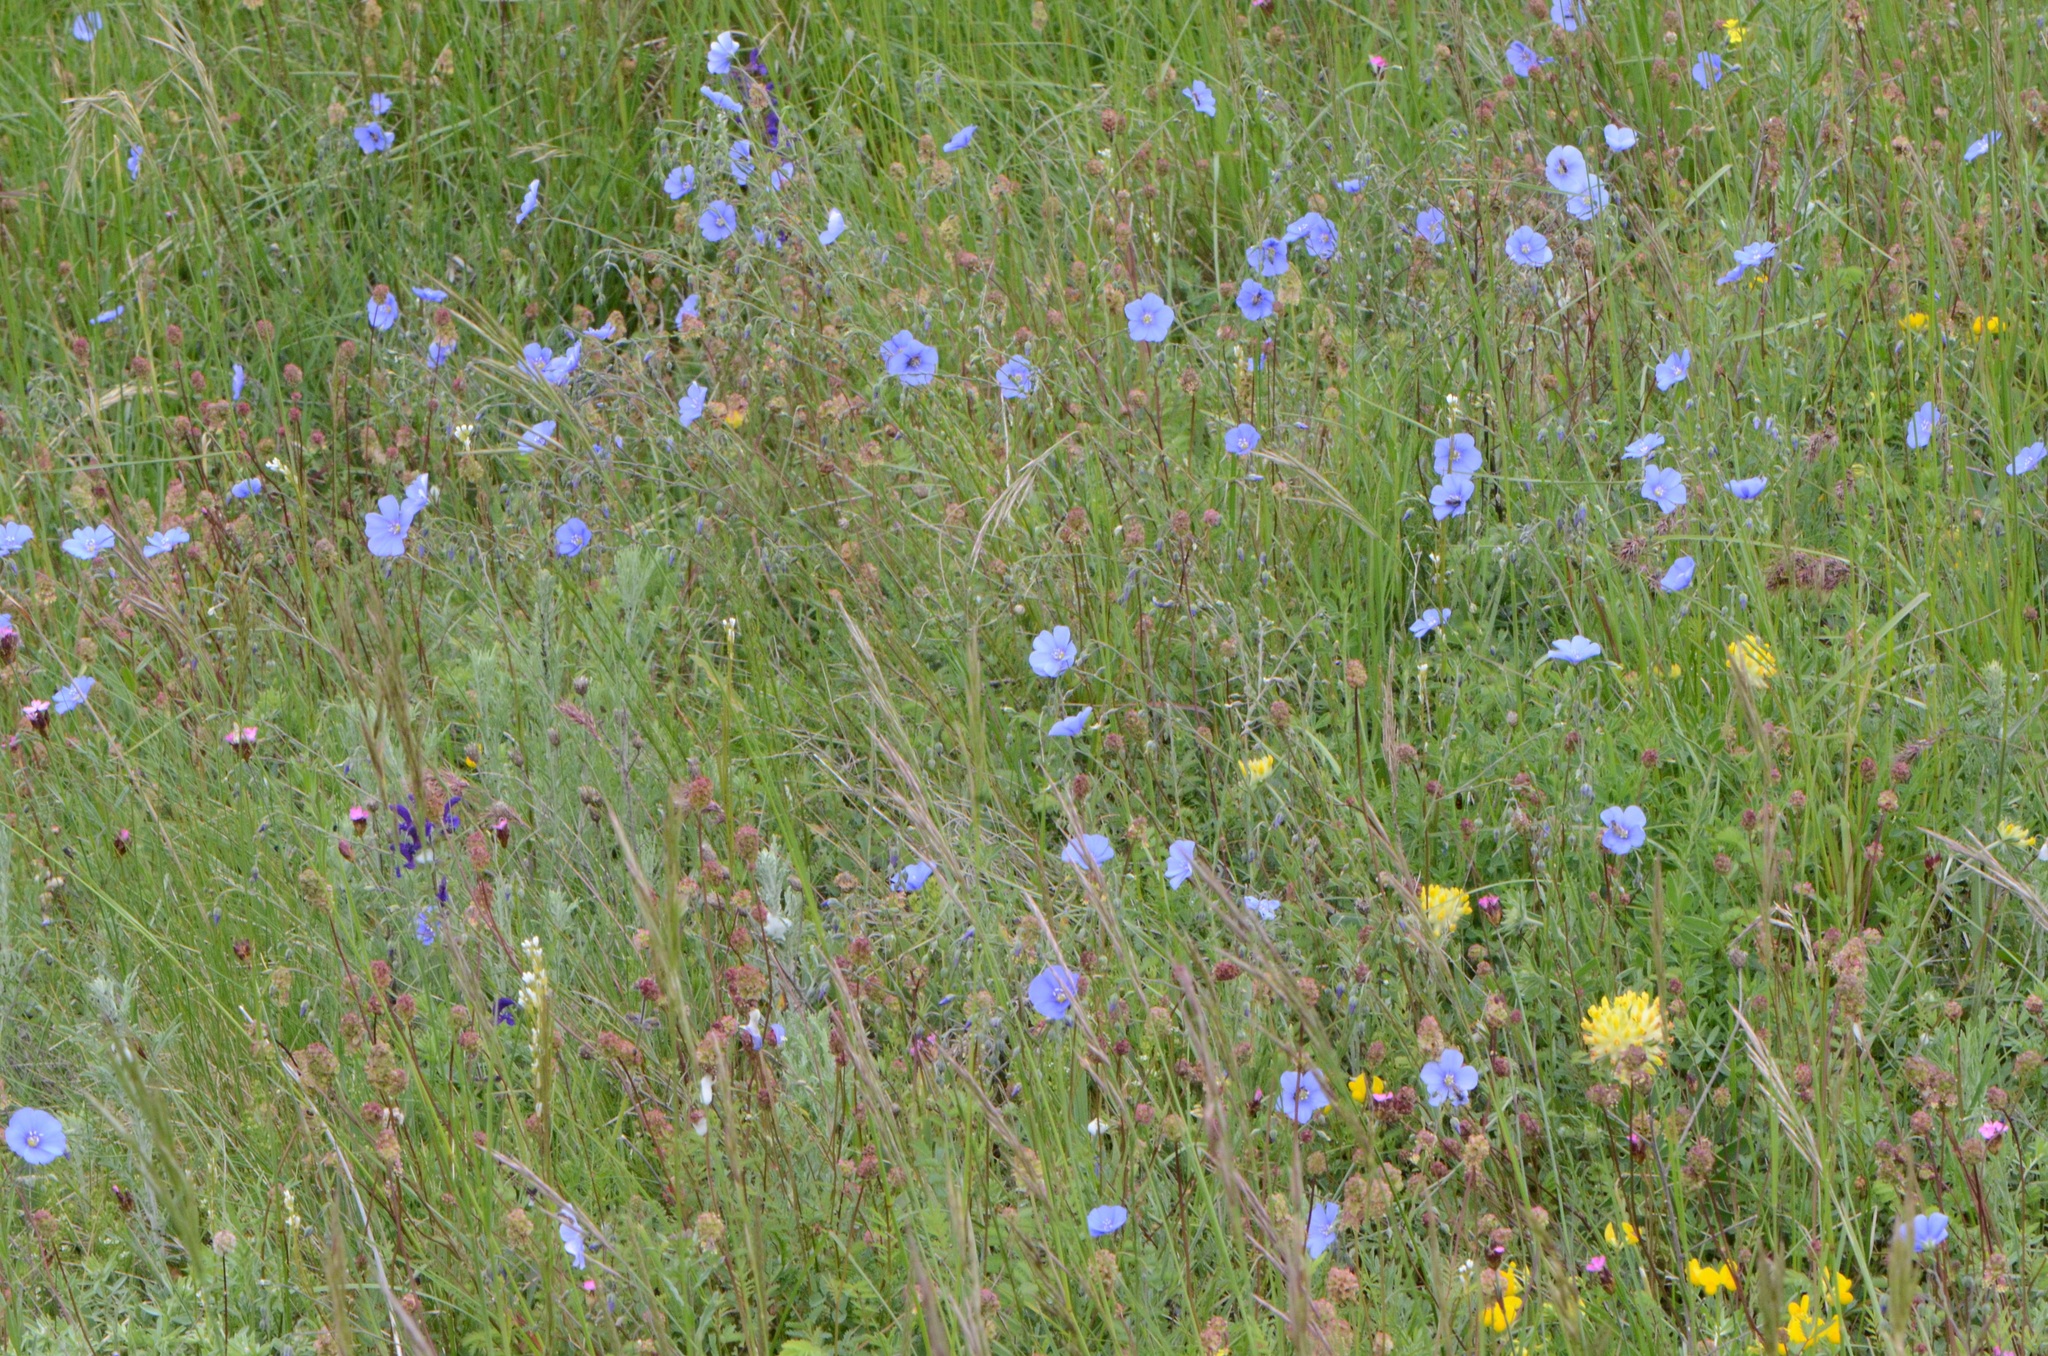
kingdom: Plantae
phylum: Tracheophyta
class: Magnoliopsida
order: Malpighiales
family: Linaceae
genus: Linum
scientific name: Linum austriacum
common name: Austrian flax
